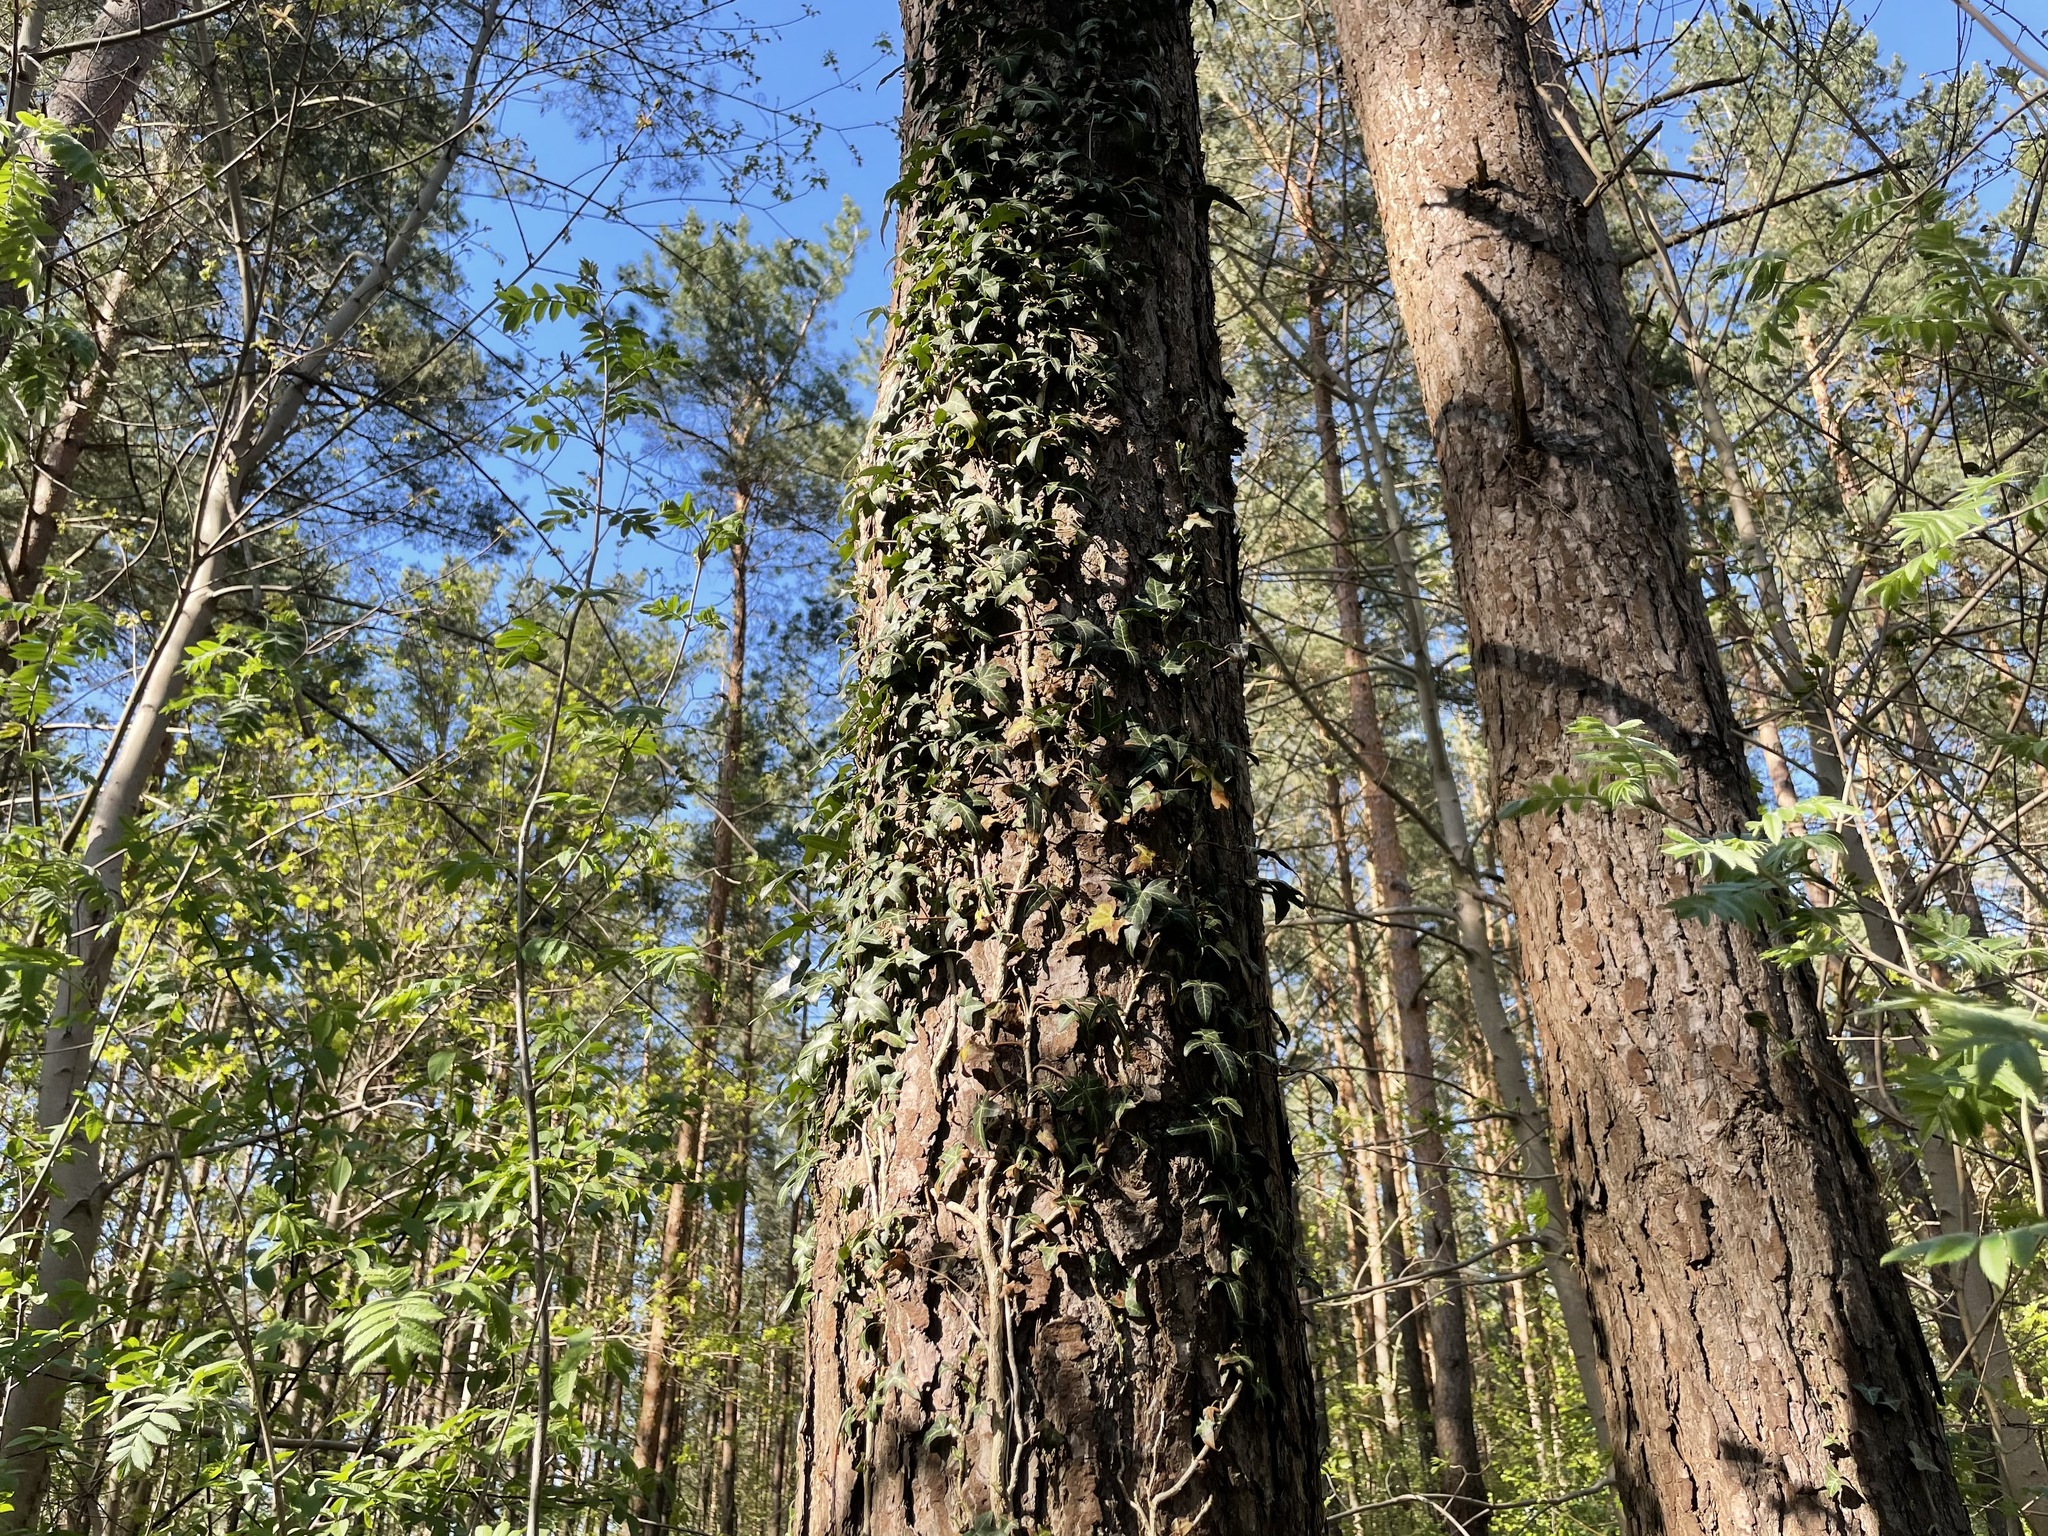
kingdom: Plantae
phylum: Tracheophyta
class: Magnoliopsida
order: Apiales
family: Araliaceae
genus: Hedera
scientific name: Hedera helix
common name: Ivy
